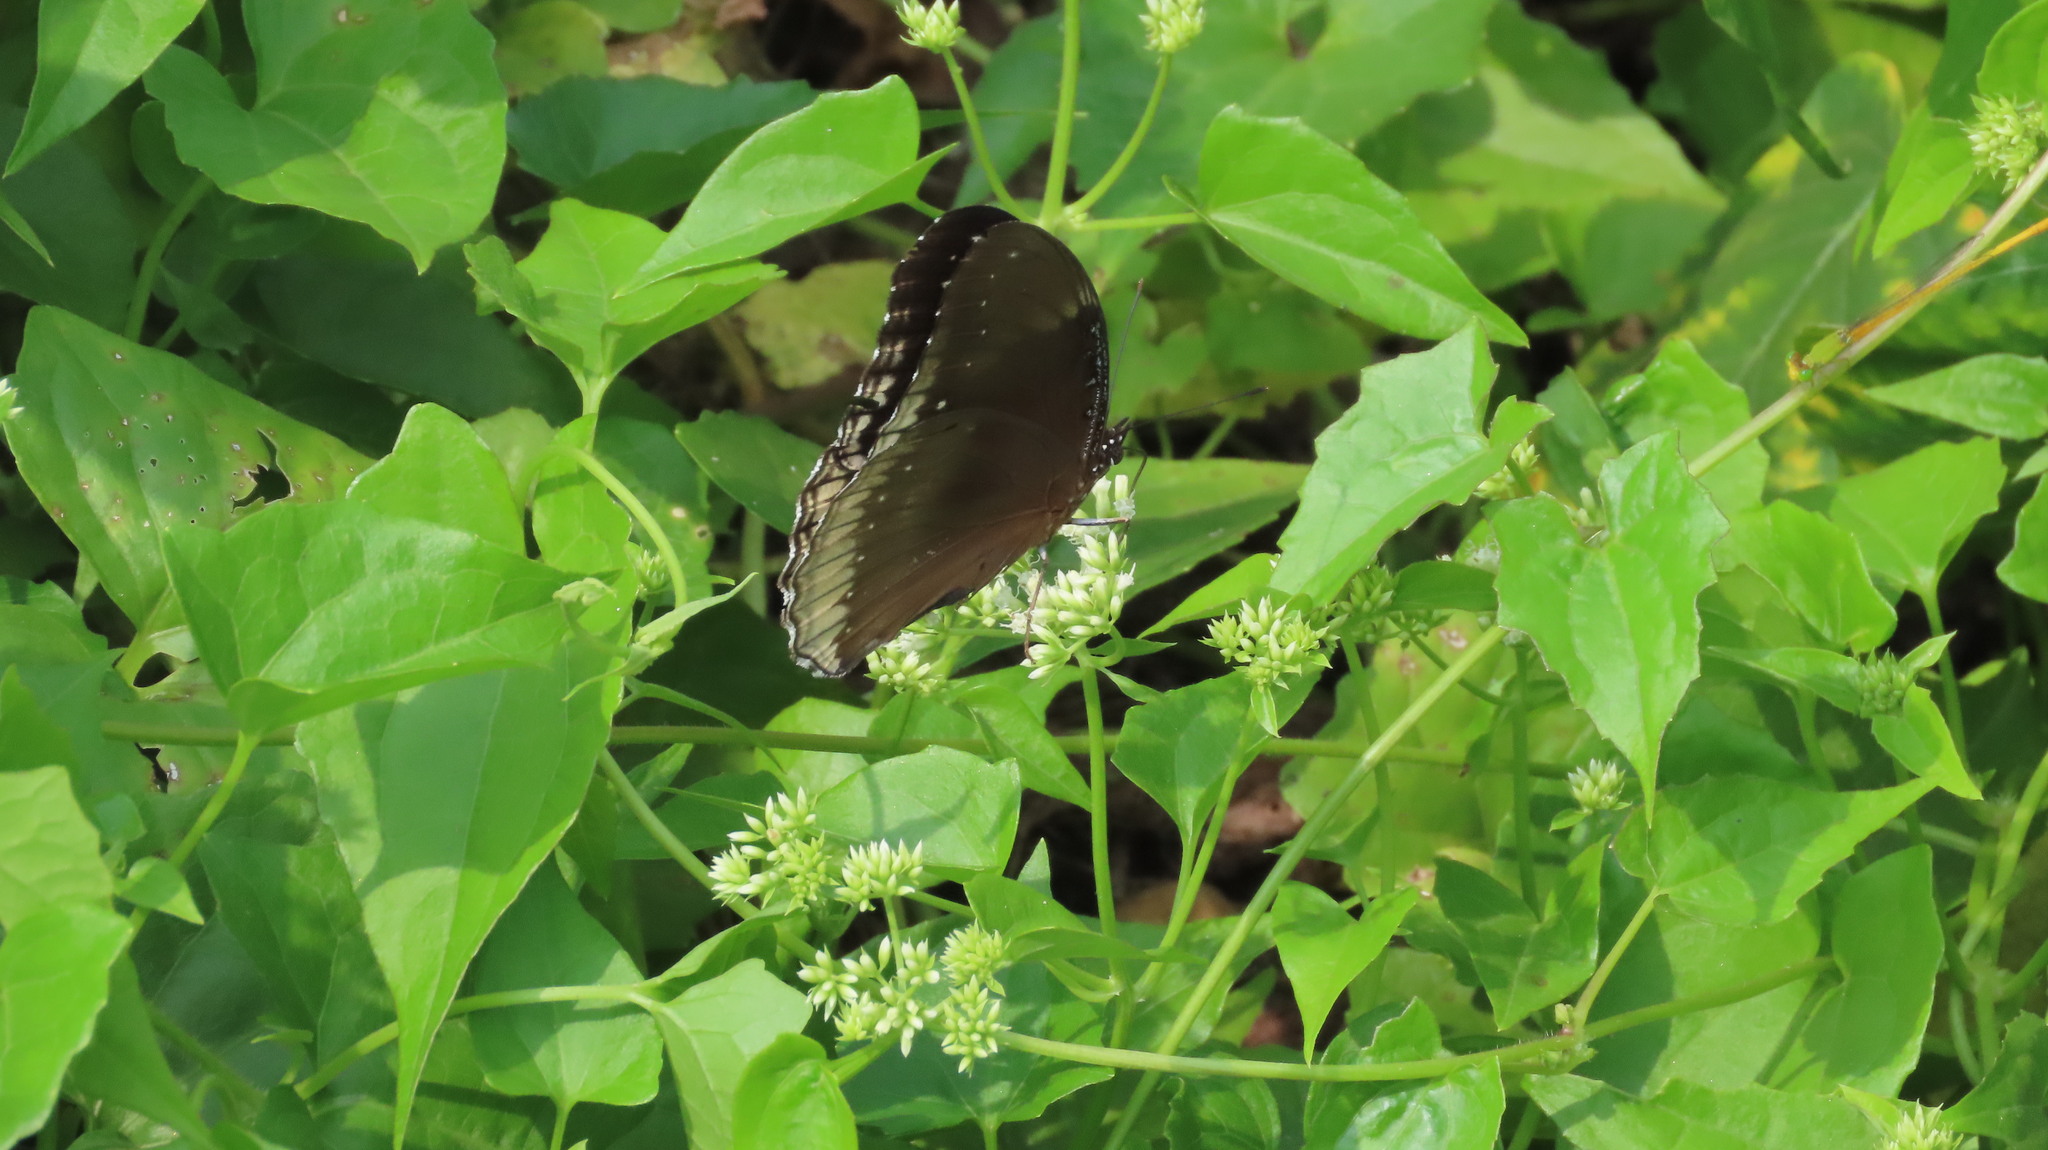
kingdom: Animalia
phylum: Arthropoda
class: Insecta
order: Lepidoptera
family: Nymphalidae
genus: Hypolimnas
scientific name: Hypolimnas bolina
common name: Great eggfly
